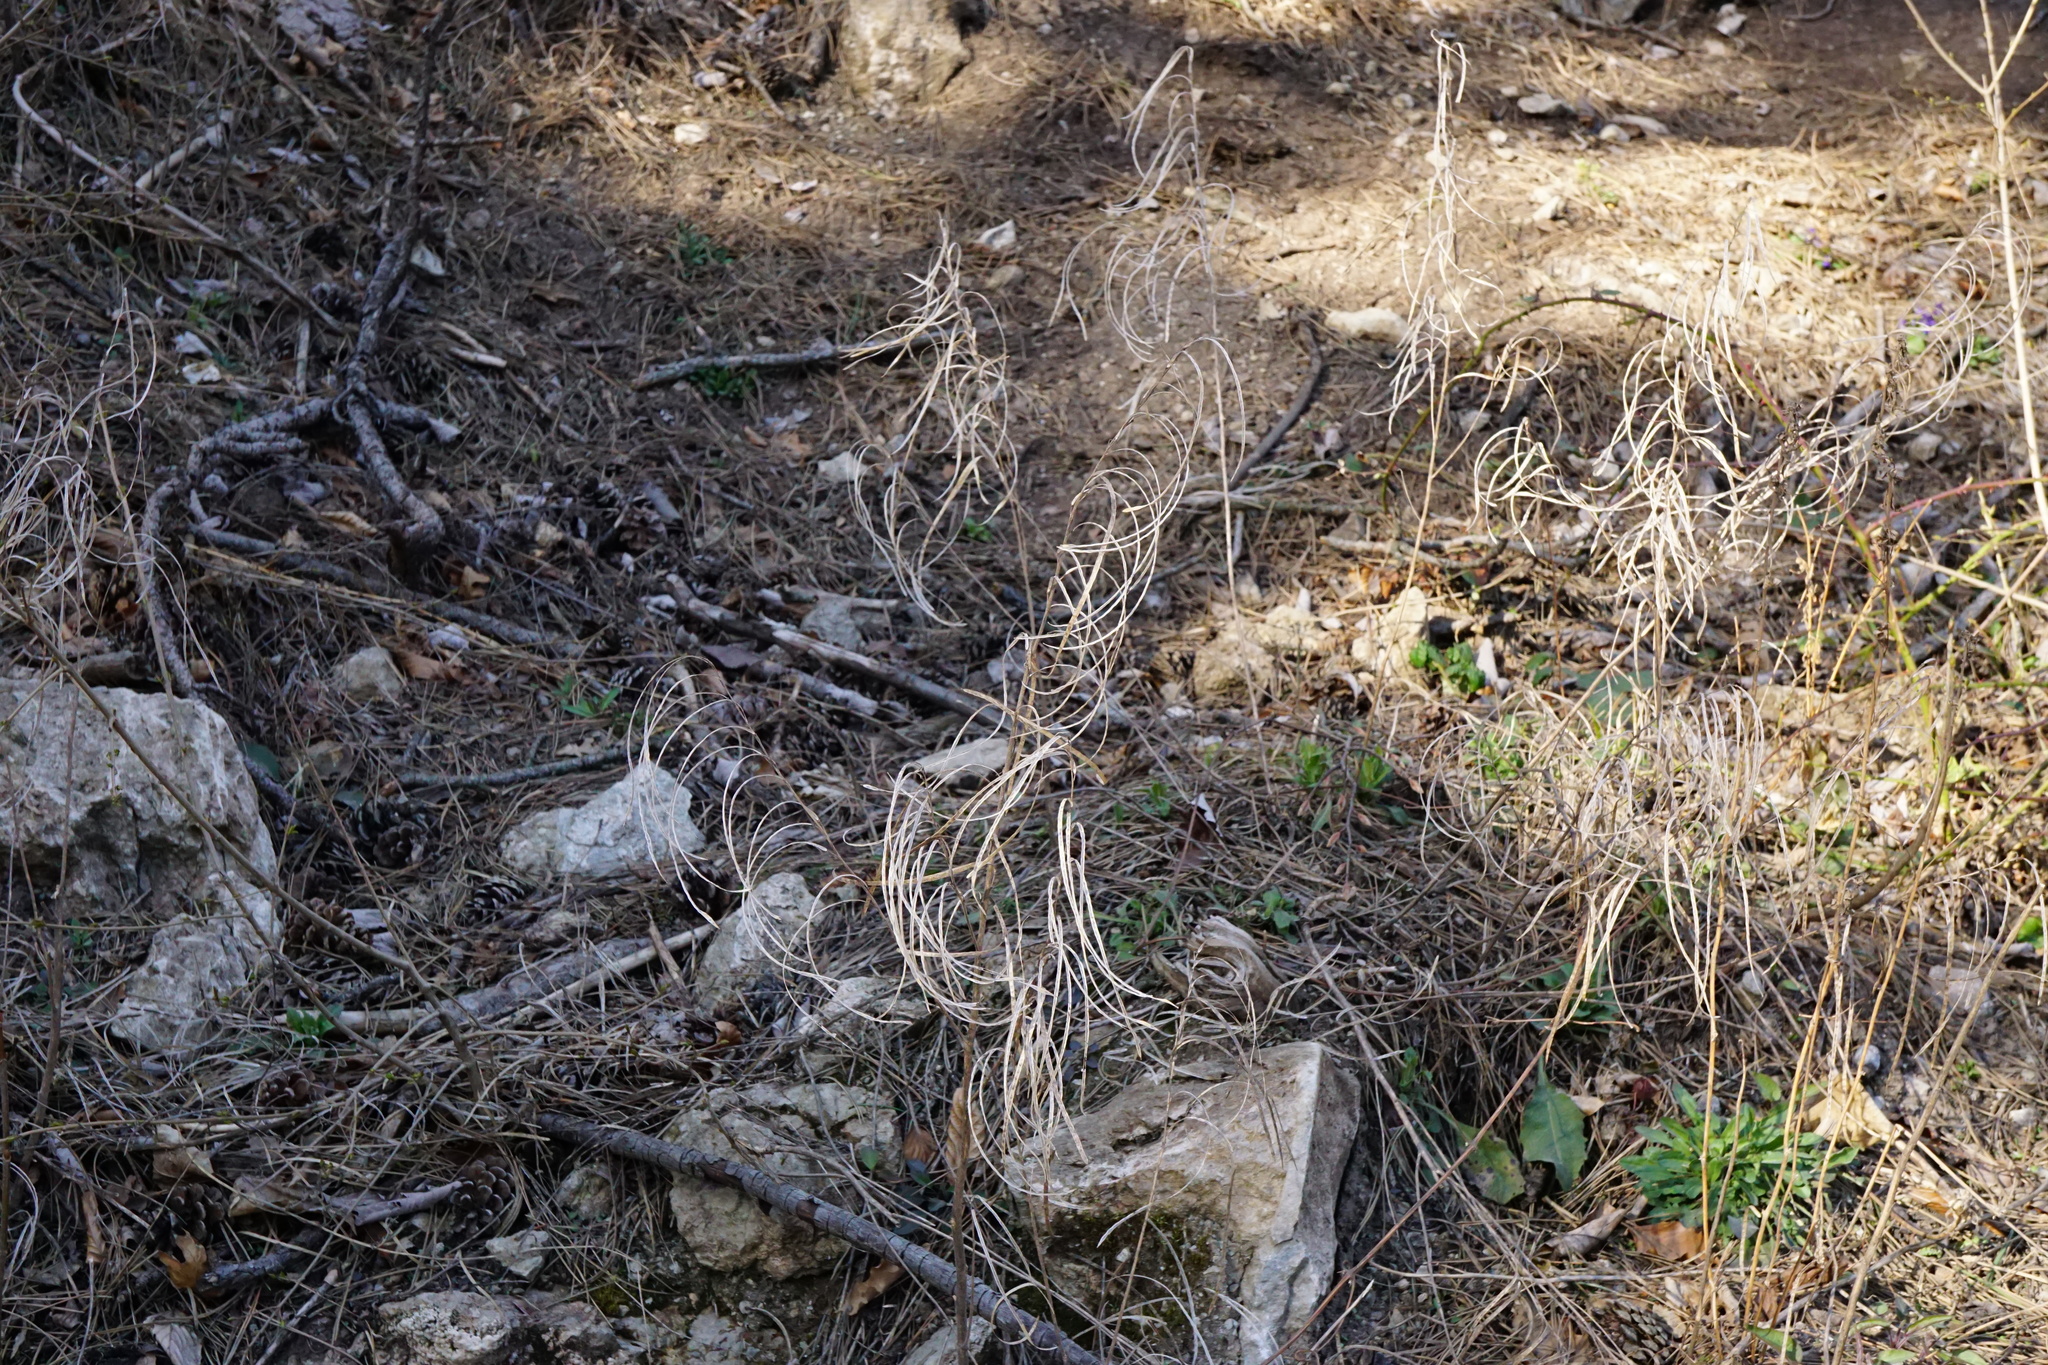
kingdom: Plantae
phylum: Tracheophyta
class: Magnoliopsida
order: Brassicales
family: Brassicaceae
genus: Pseudoturritis
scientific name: Pseudoturritis turrita
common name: Tower cress
